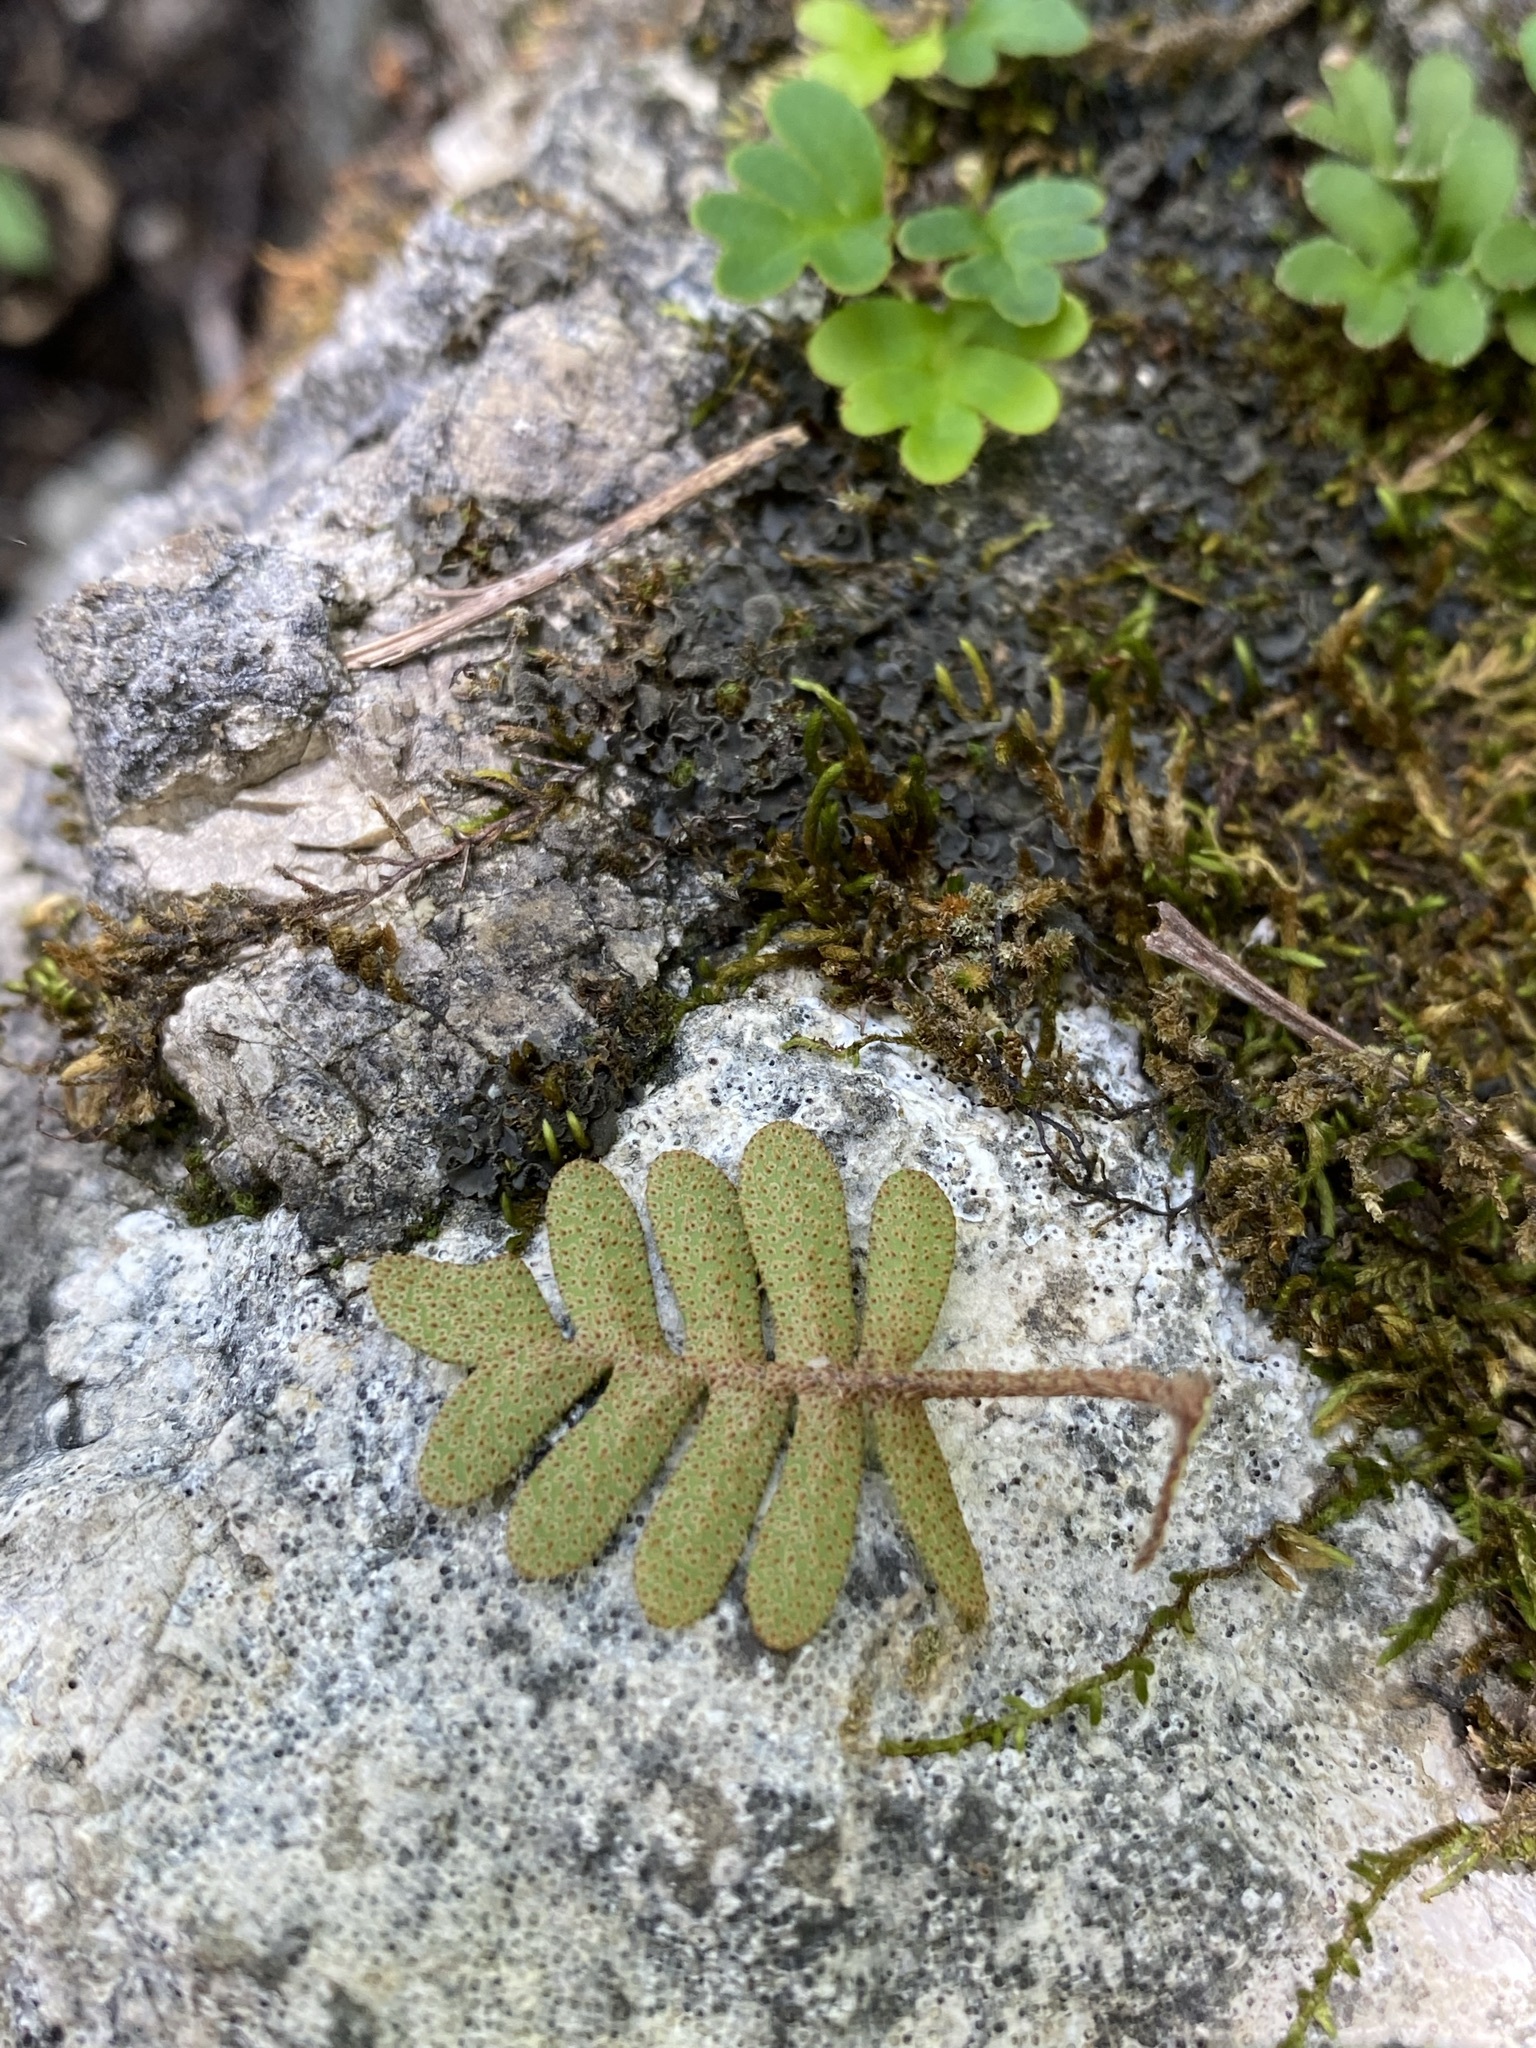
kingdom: Plantae
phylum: Tracheophyta
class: Polypodiopsida
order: Polypodiales
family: Polypodiaceae
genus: Pleopeltis
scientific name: Pleopeltis michauxiana
